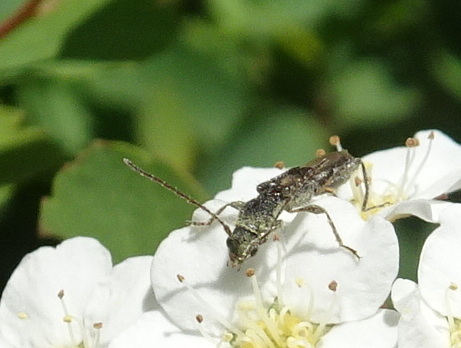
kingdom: Animalia
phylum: Arthropoda
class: Insecta
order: Coleoptera
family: Cerambycidae
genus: Molorchus
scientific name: Molorchus bimaculatus
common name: Bimaculate longhorn beetle
